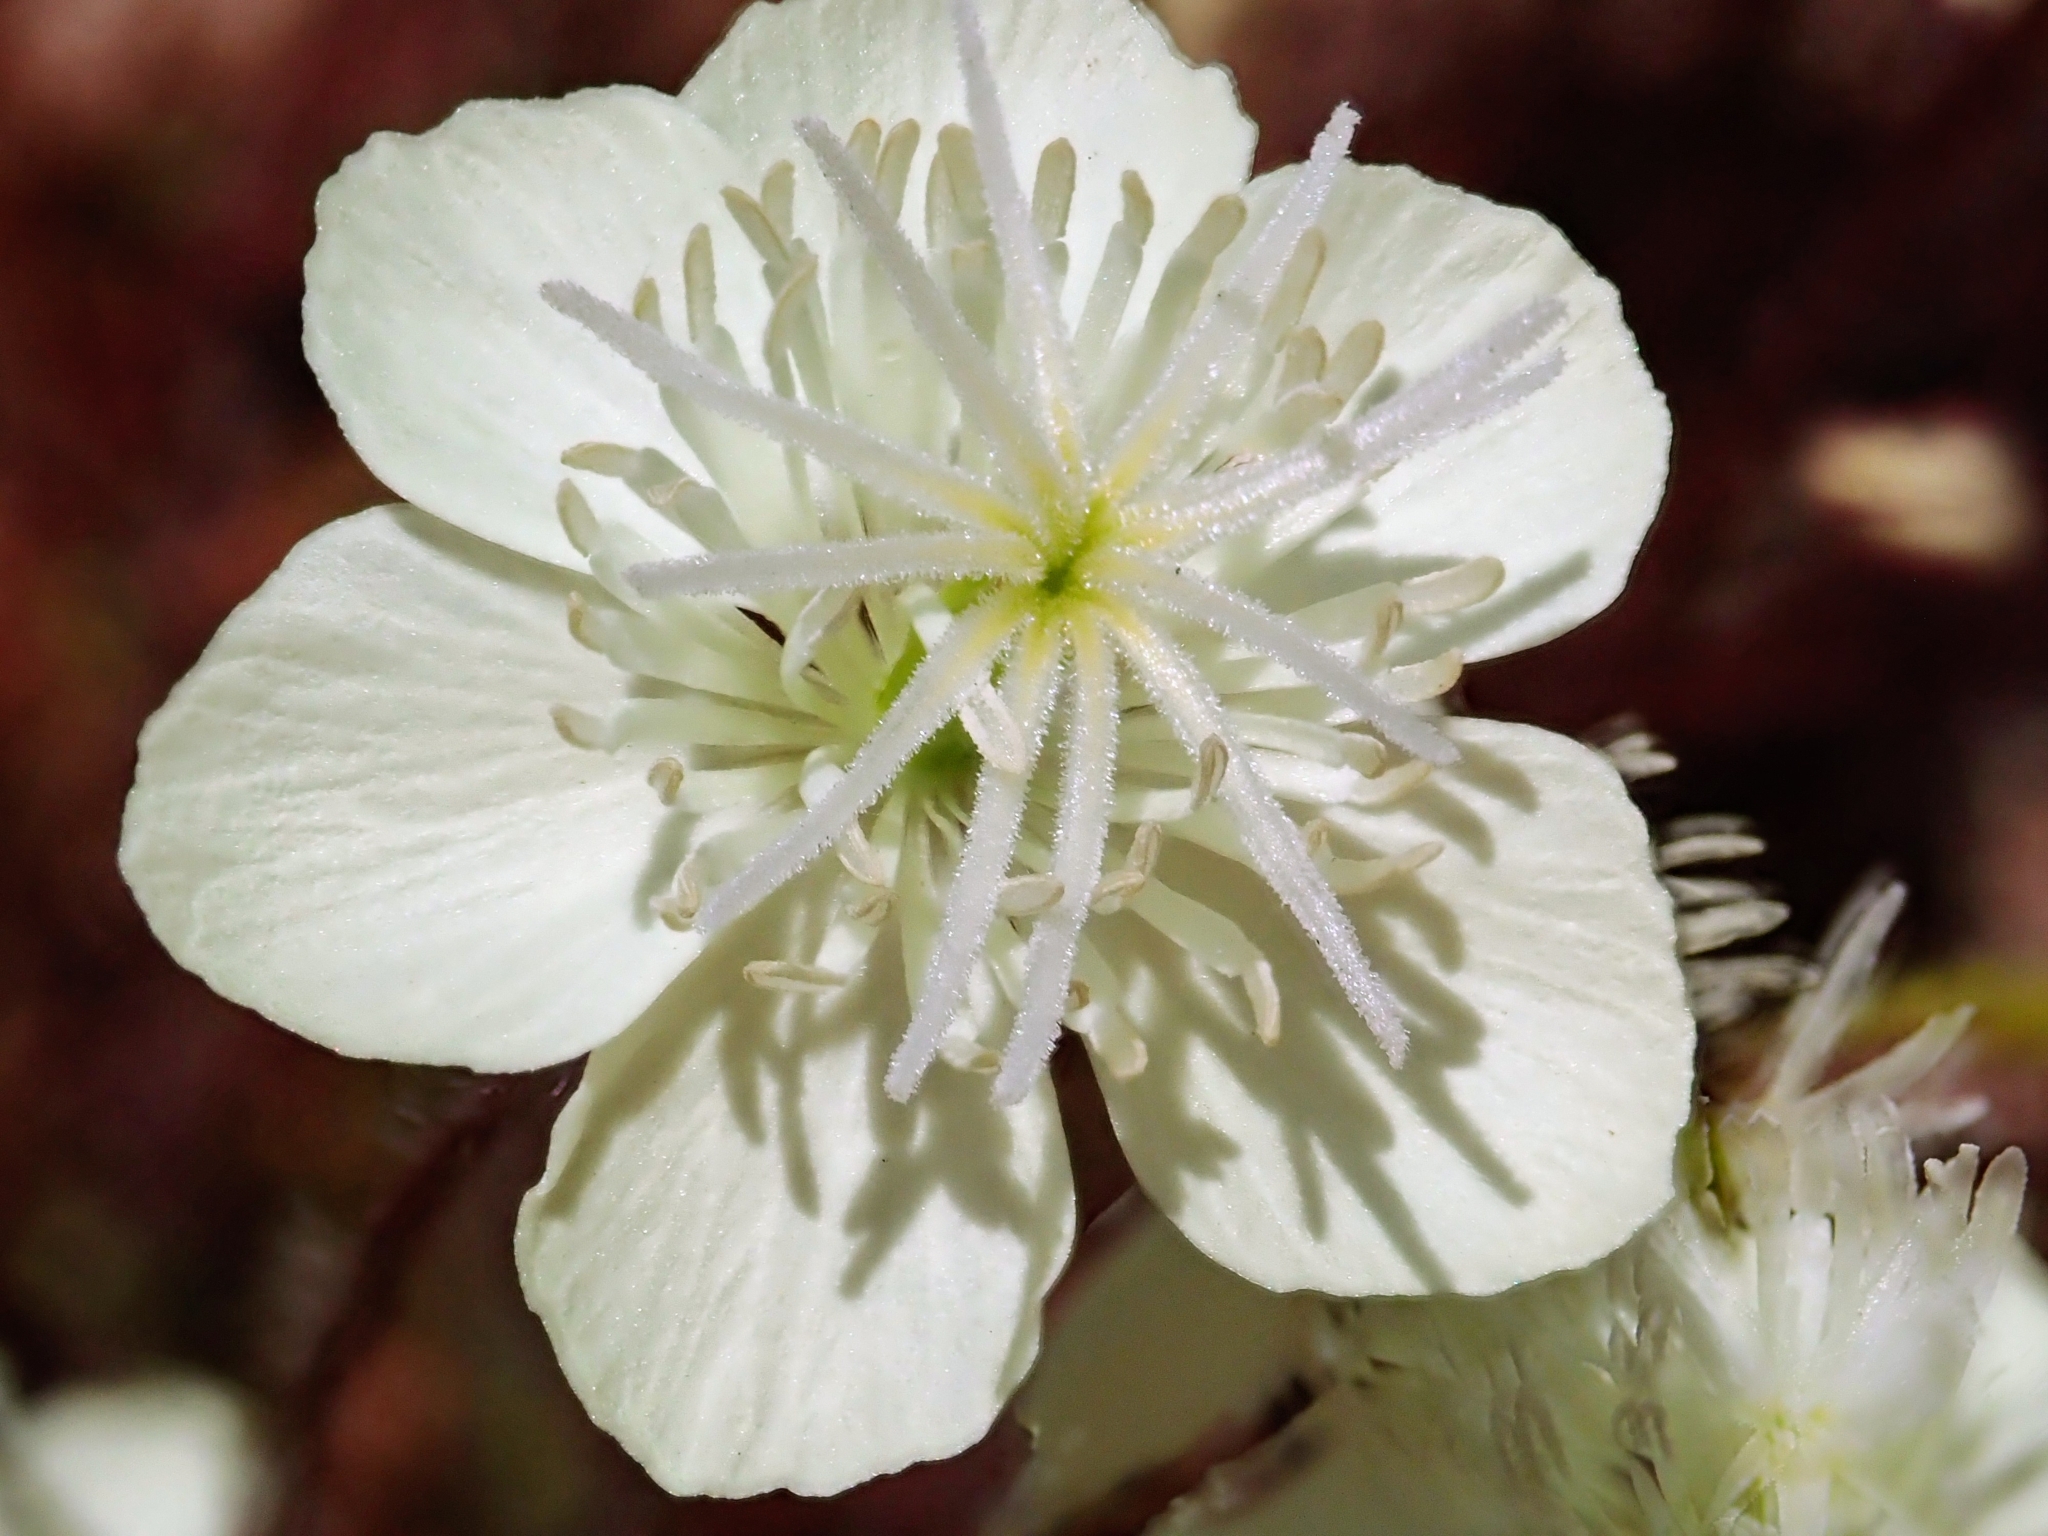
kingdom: Plantae
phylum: Tracheophyta
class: Magnoliopsida
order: Ranunculales
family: Papaveraceae
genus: Platystemon
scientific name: Platystemon californicus
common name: Cream-cups
